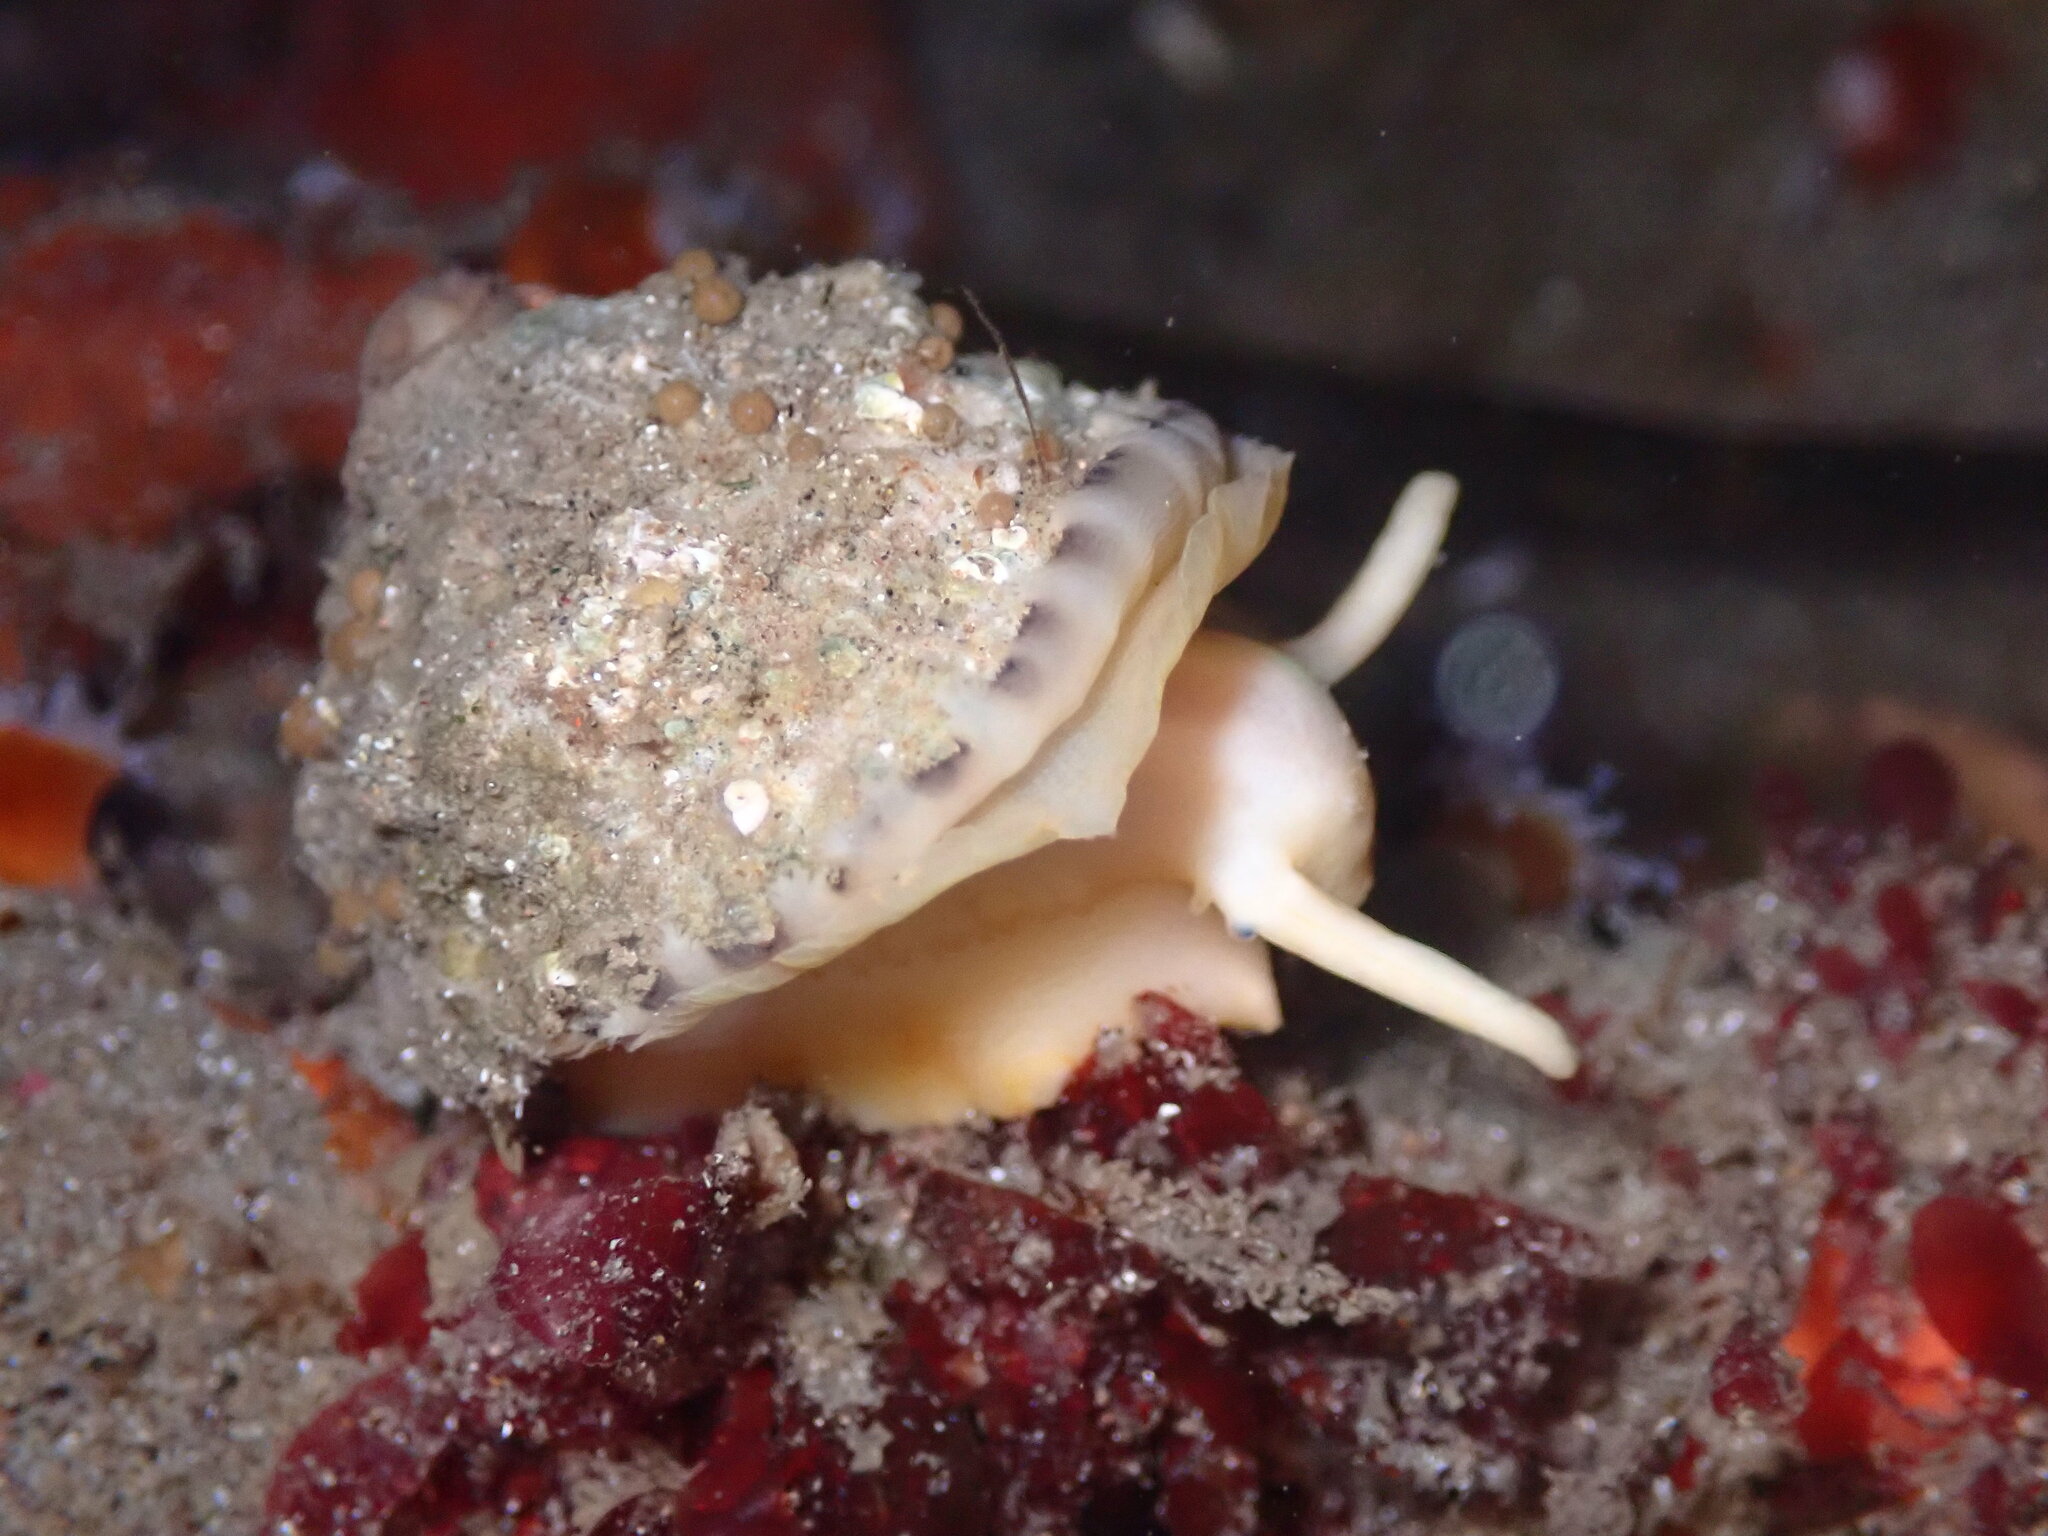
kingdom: Animalia
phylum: Mollusca
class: Gastropoda
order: Lepetellida
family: Fissurellidae
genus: Diodora
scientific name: Diodora aspera
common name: Rough keyhole limpet
